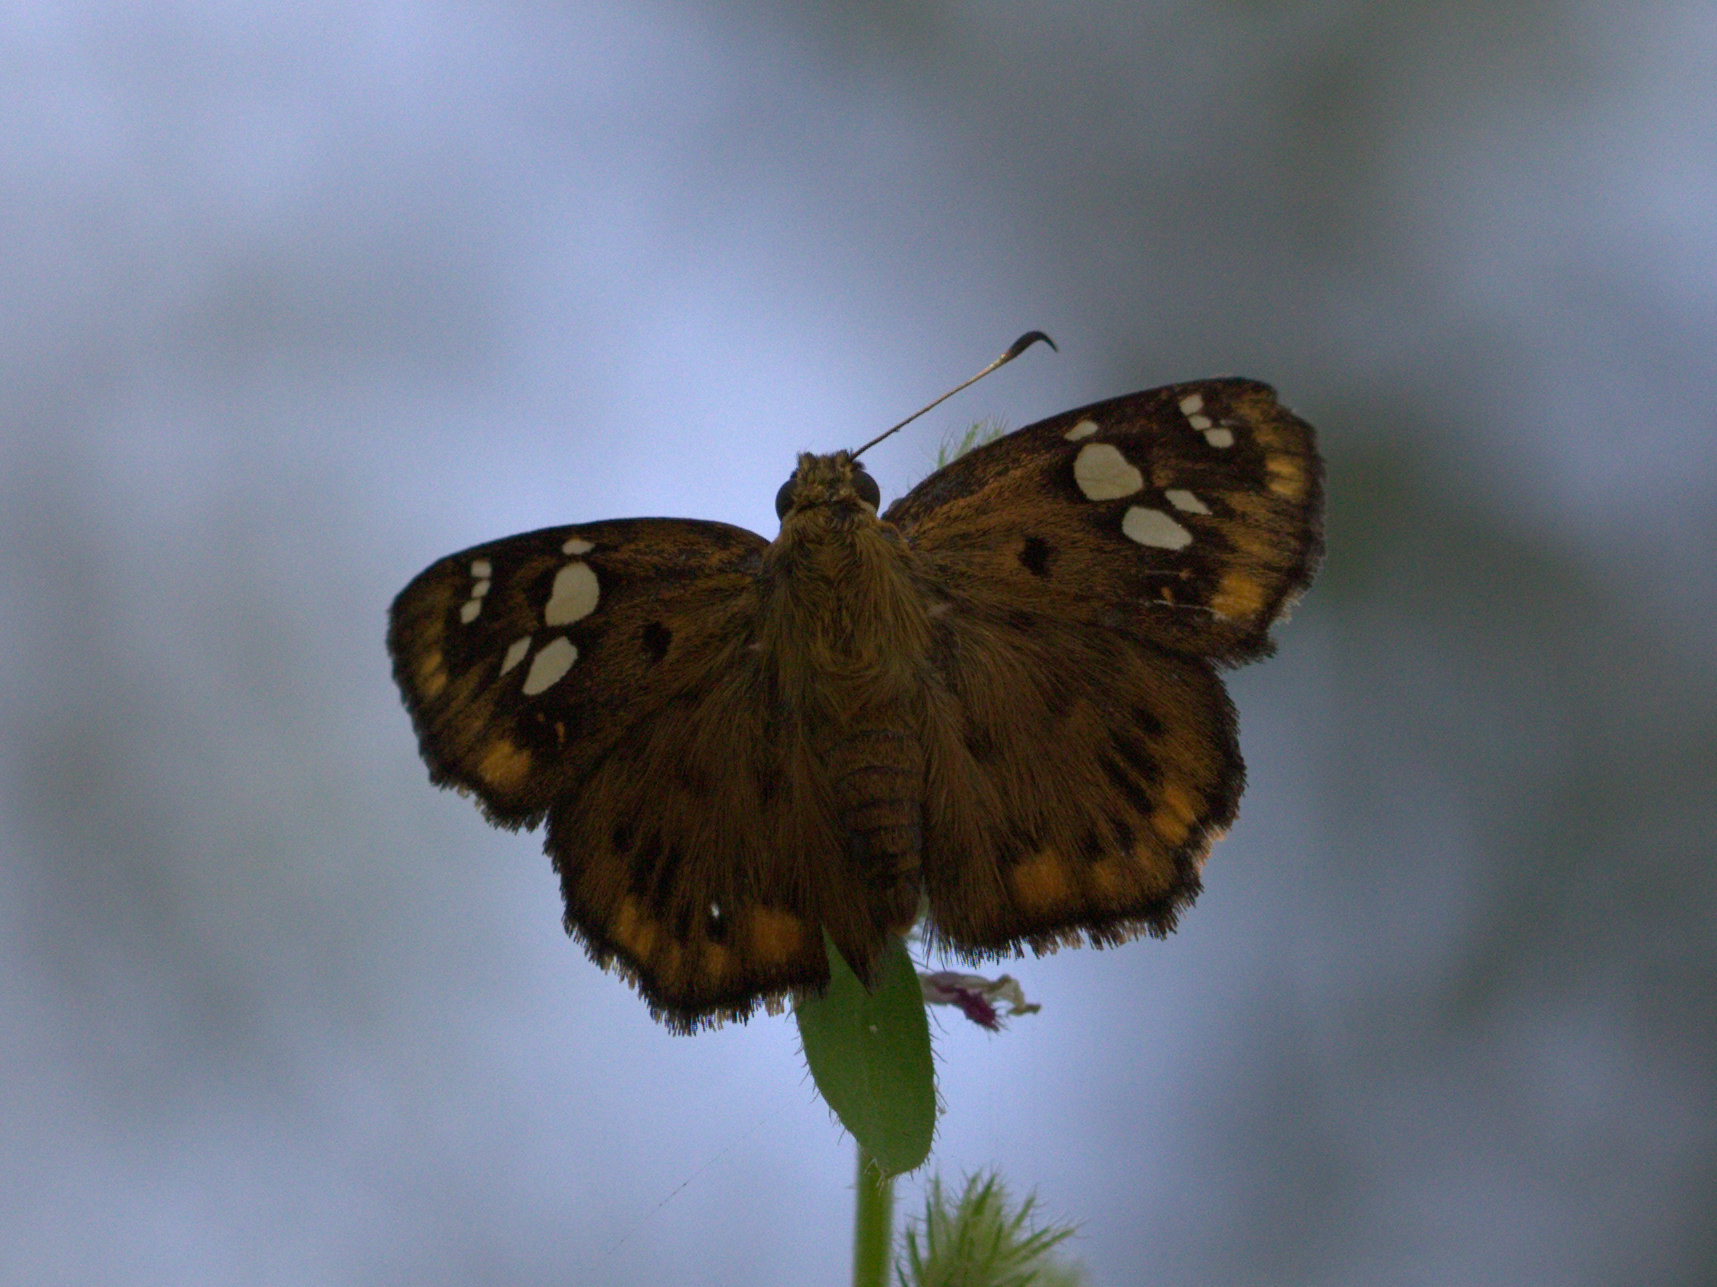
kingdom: Animalia
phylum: Arthropoda
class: Insecta
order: Lepidoptera
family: Hesperiidae
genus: Coladenia
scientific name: Coladenia
